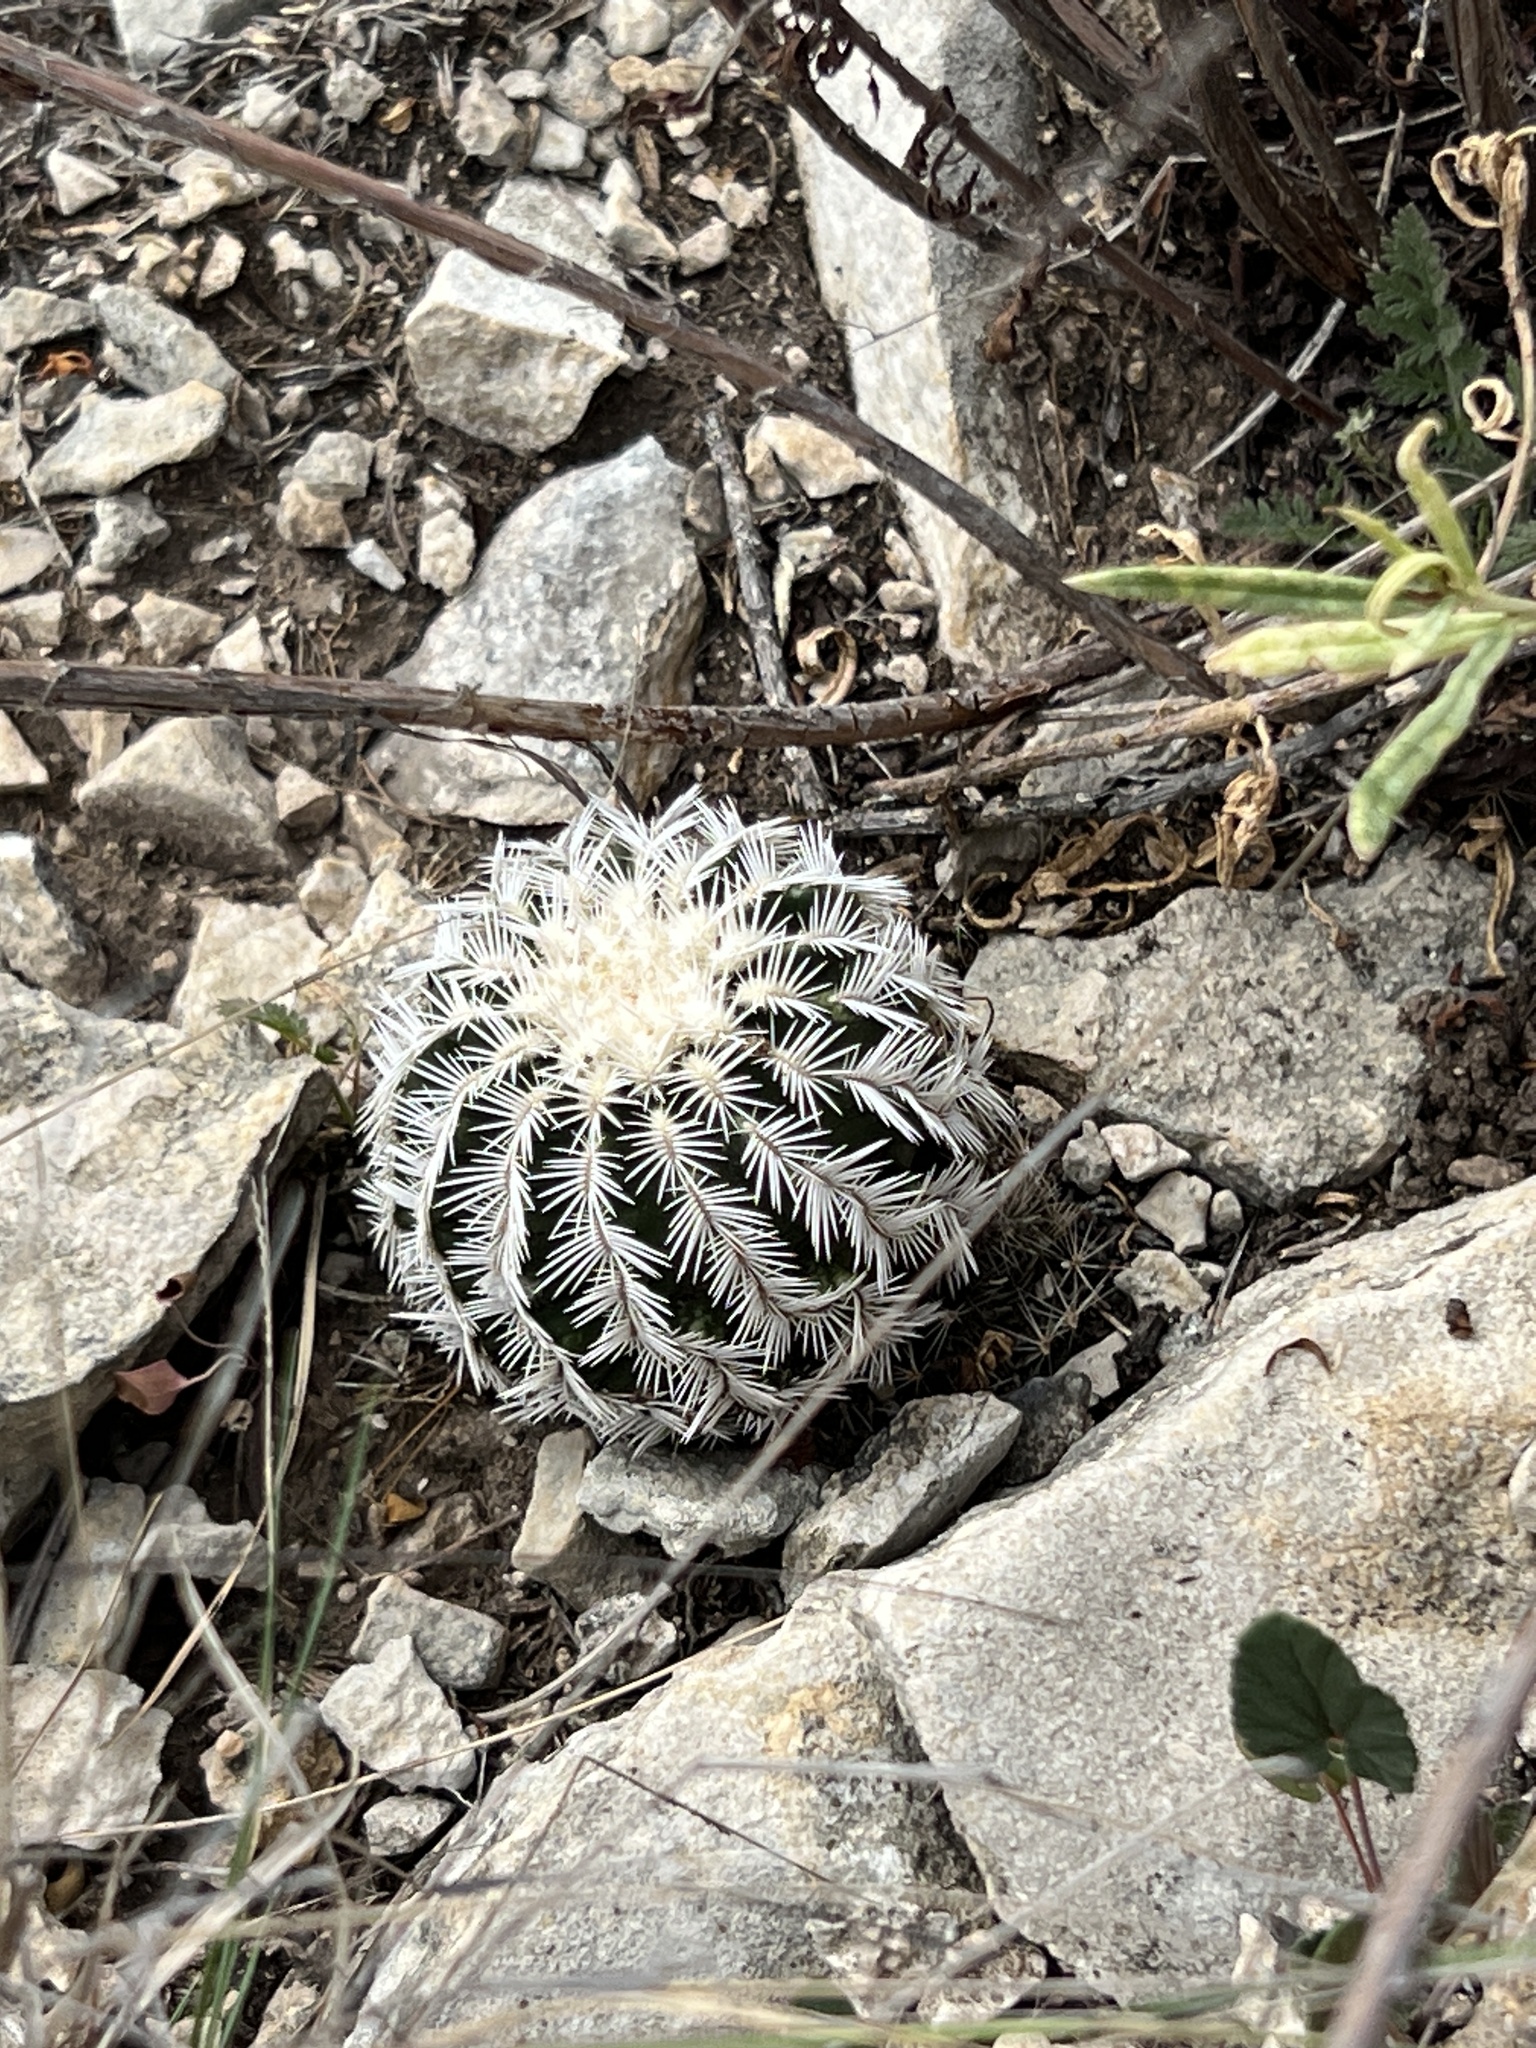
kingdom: Plantae
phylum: Tracheophyta
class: Magnoliopsida
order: Caryophyllales
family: Cactaceae
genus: Echinocereus
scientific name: Echinocereus reichenbachii
